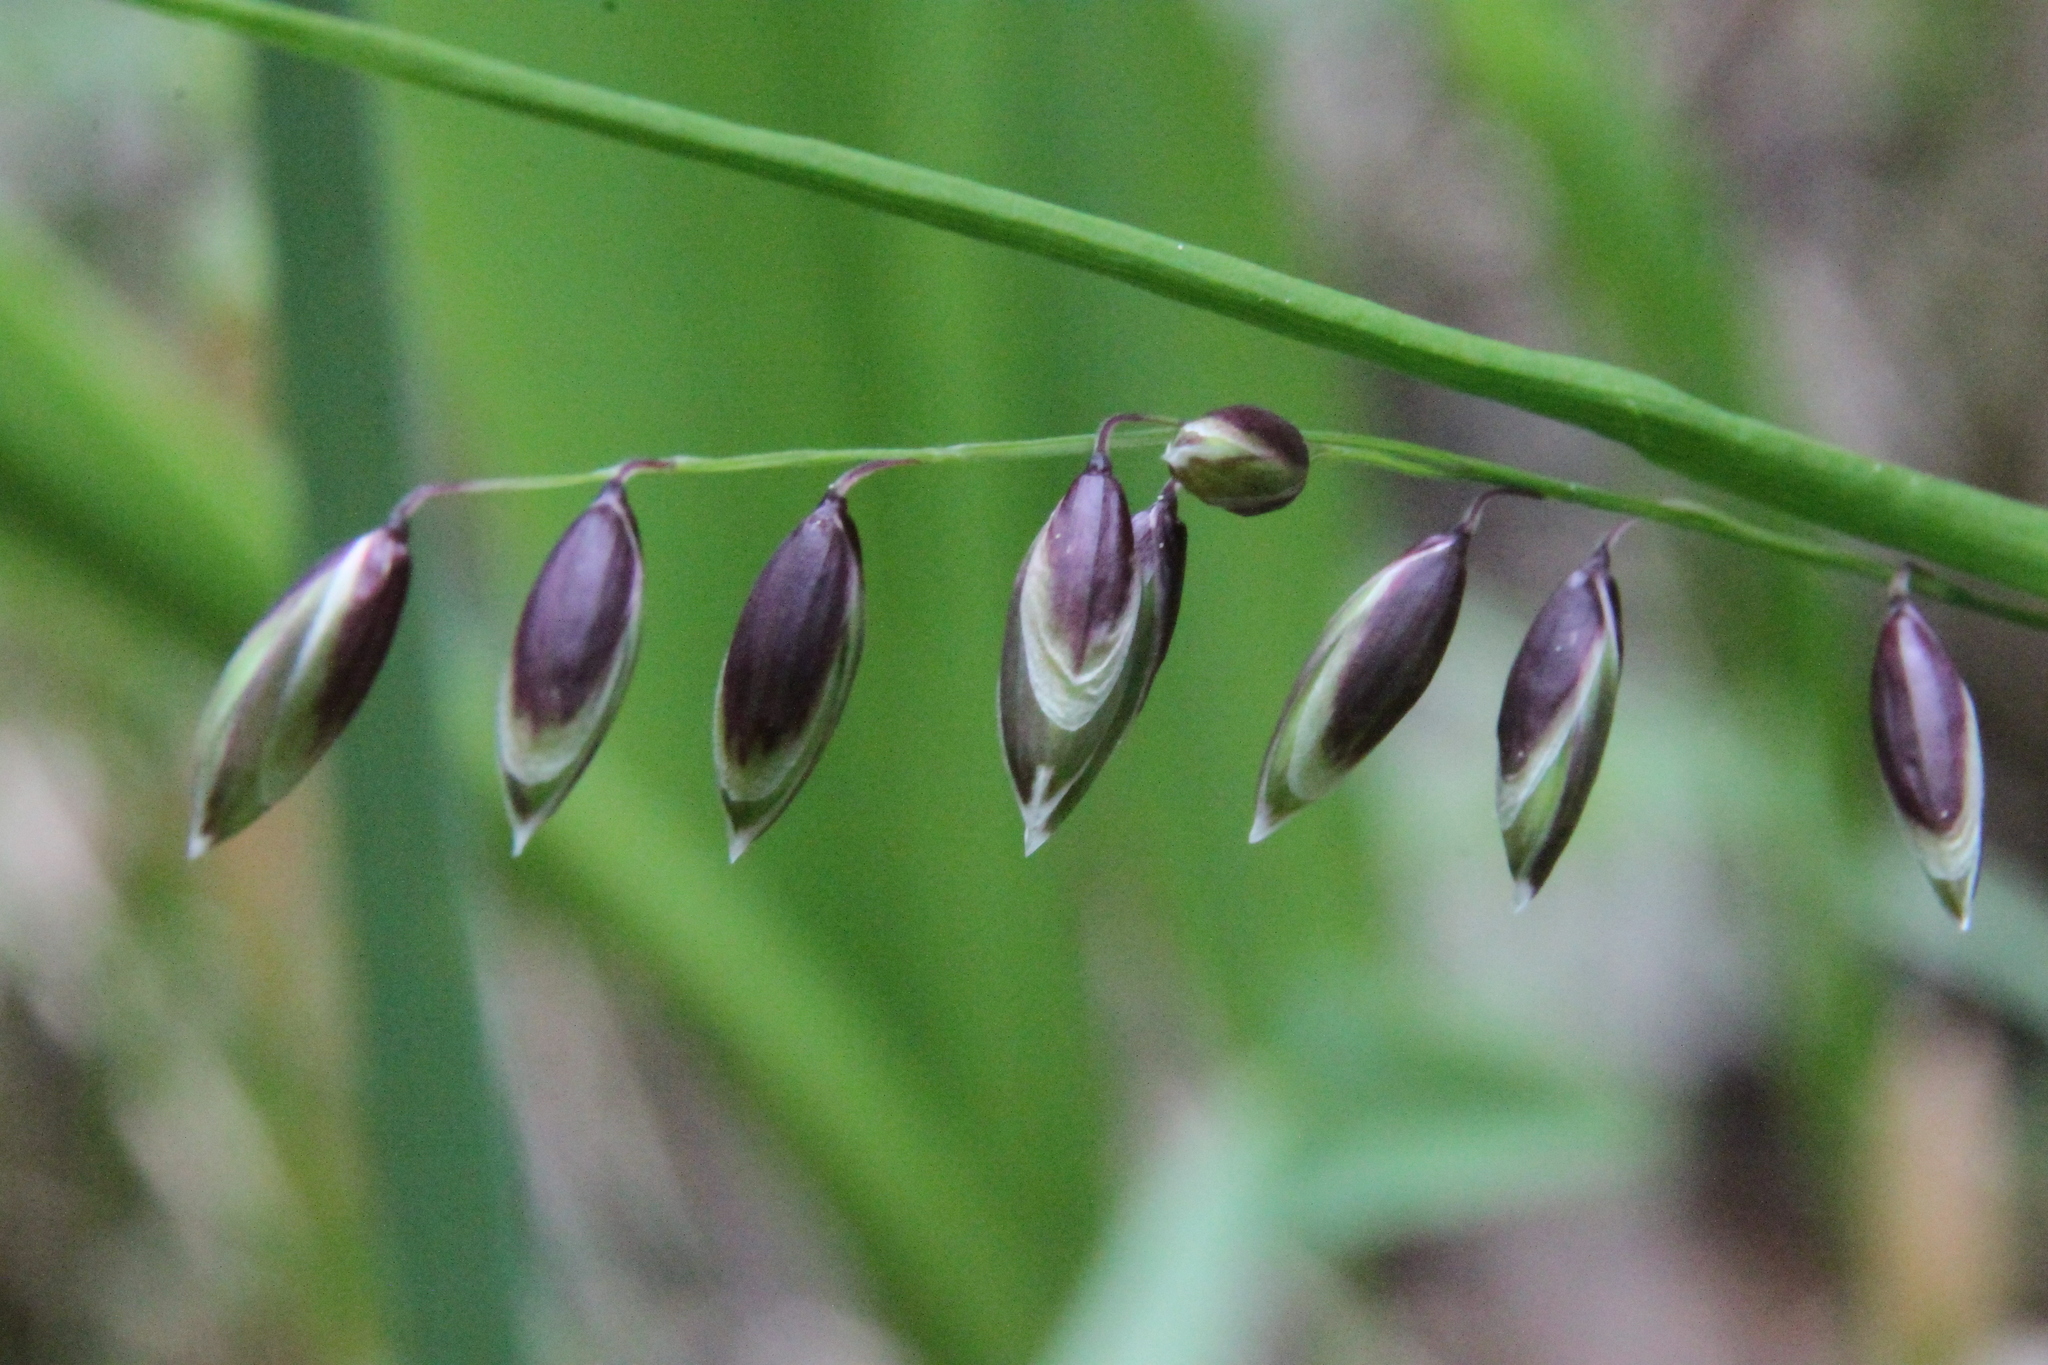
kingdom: Plantae
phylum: Tracheophyta
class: Liliopsida
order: Poales
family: Poaceae
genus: Melica
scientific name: Melica nutans
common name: Mountain melick
